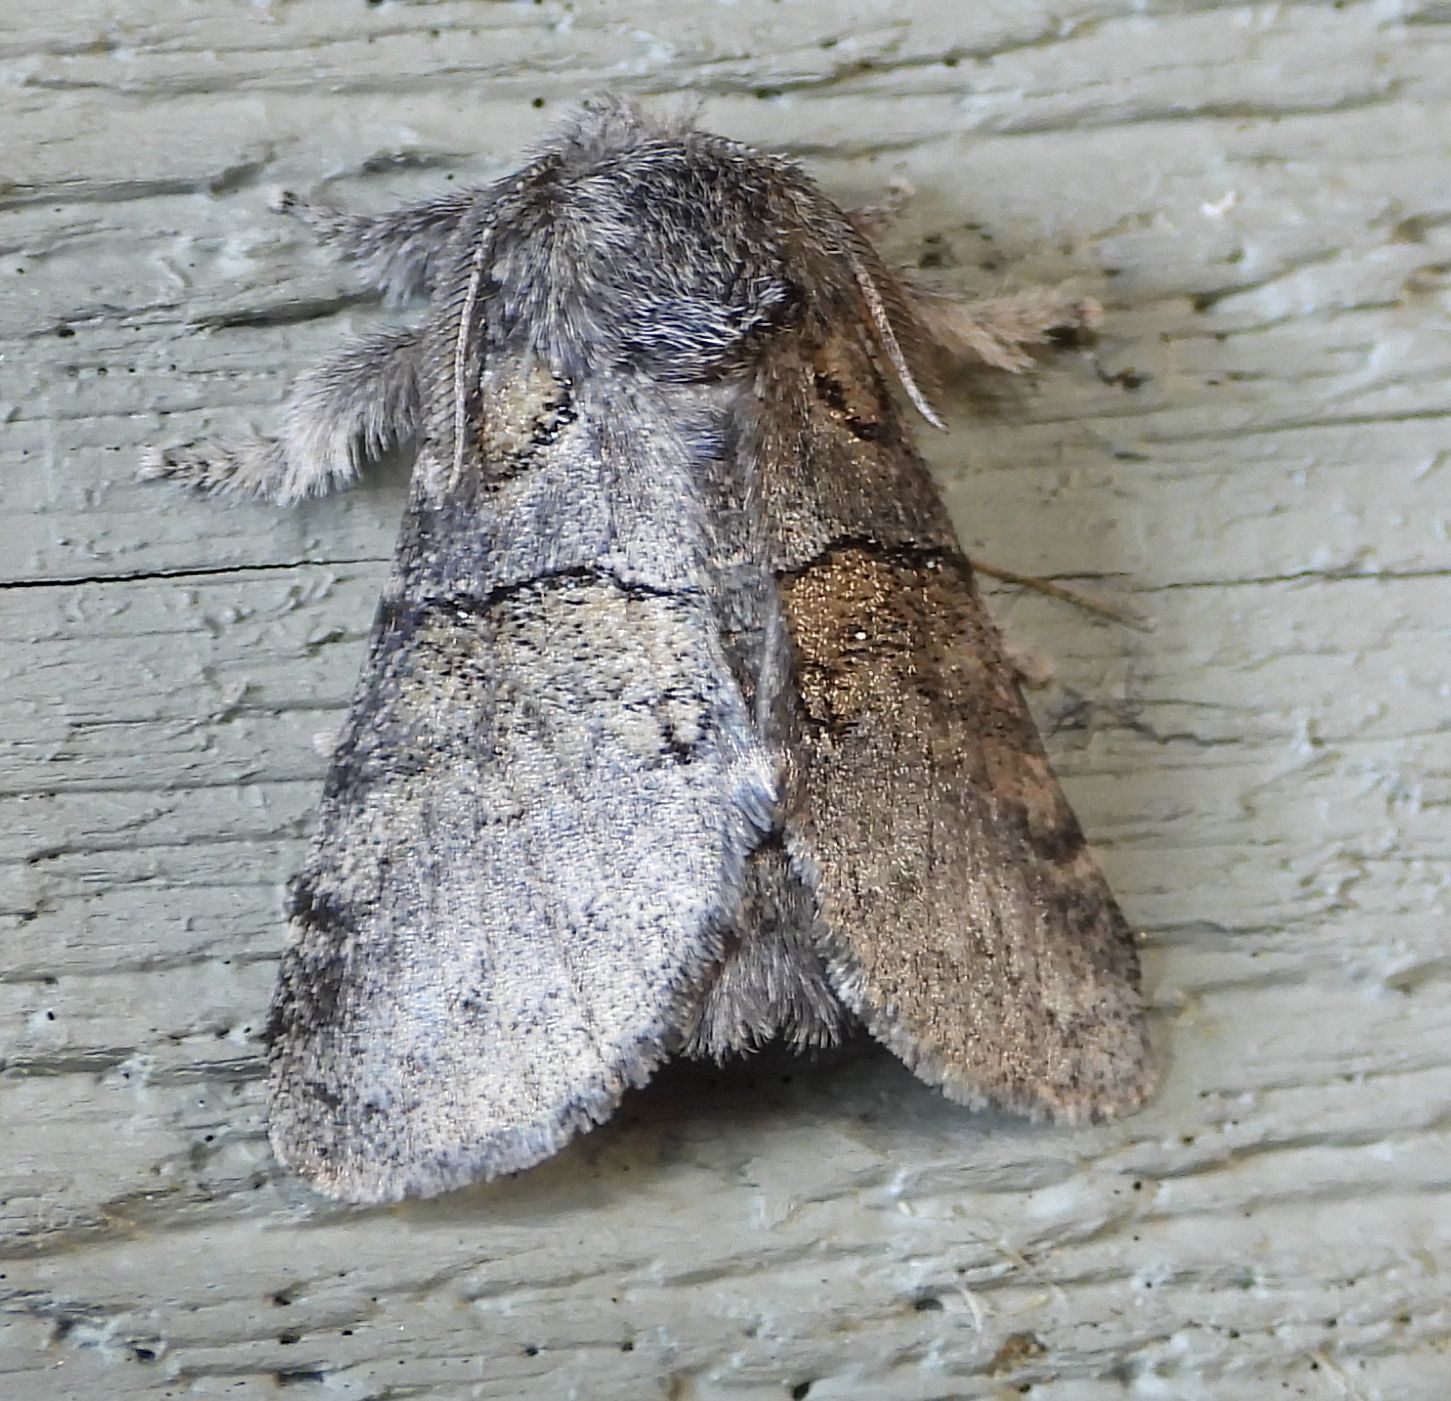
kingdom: Animalia
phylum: Arthropoda
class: Insecta
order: Lepidoptera
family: Notodontidae
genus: Gluphisia
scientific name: Gluphisia septentrionis
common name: Common gluphisia
